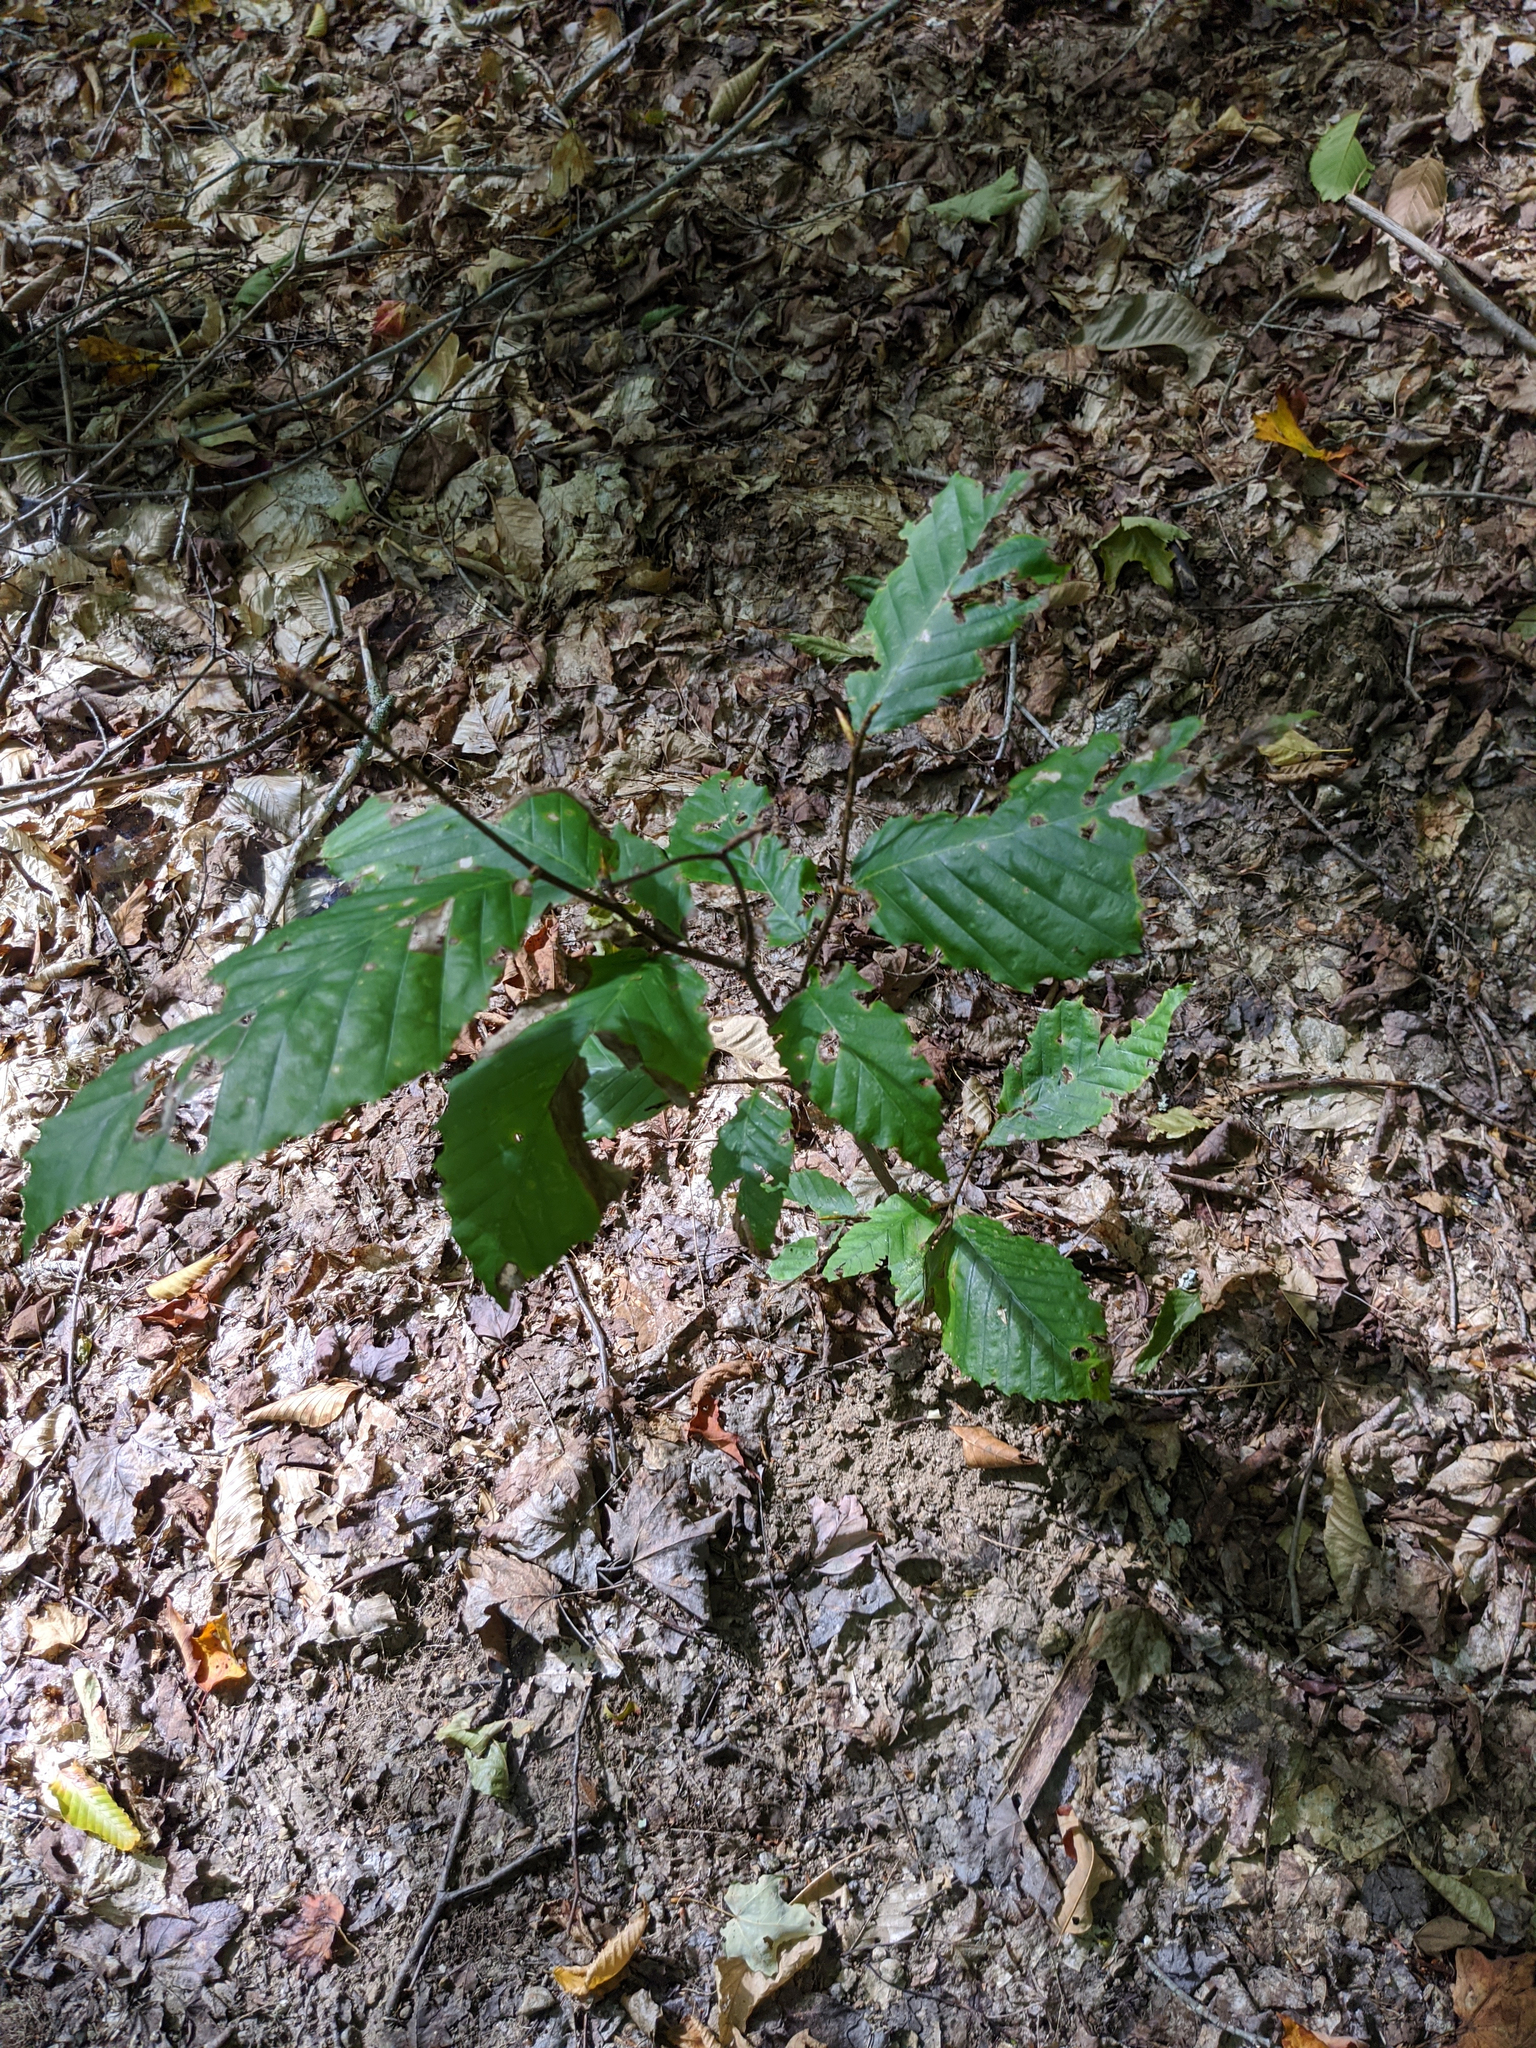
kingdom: Plantae
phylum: Tracheophyta
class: Magnoliopsida
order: Fagales
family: Fagaceae
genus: Fagus
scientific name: Fagus grandifolia
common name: American beech
